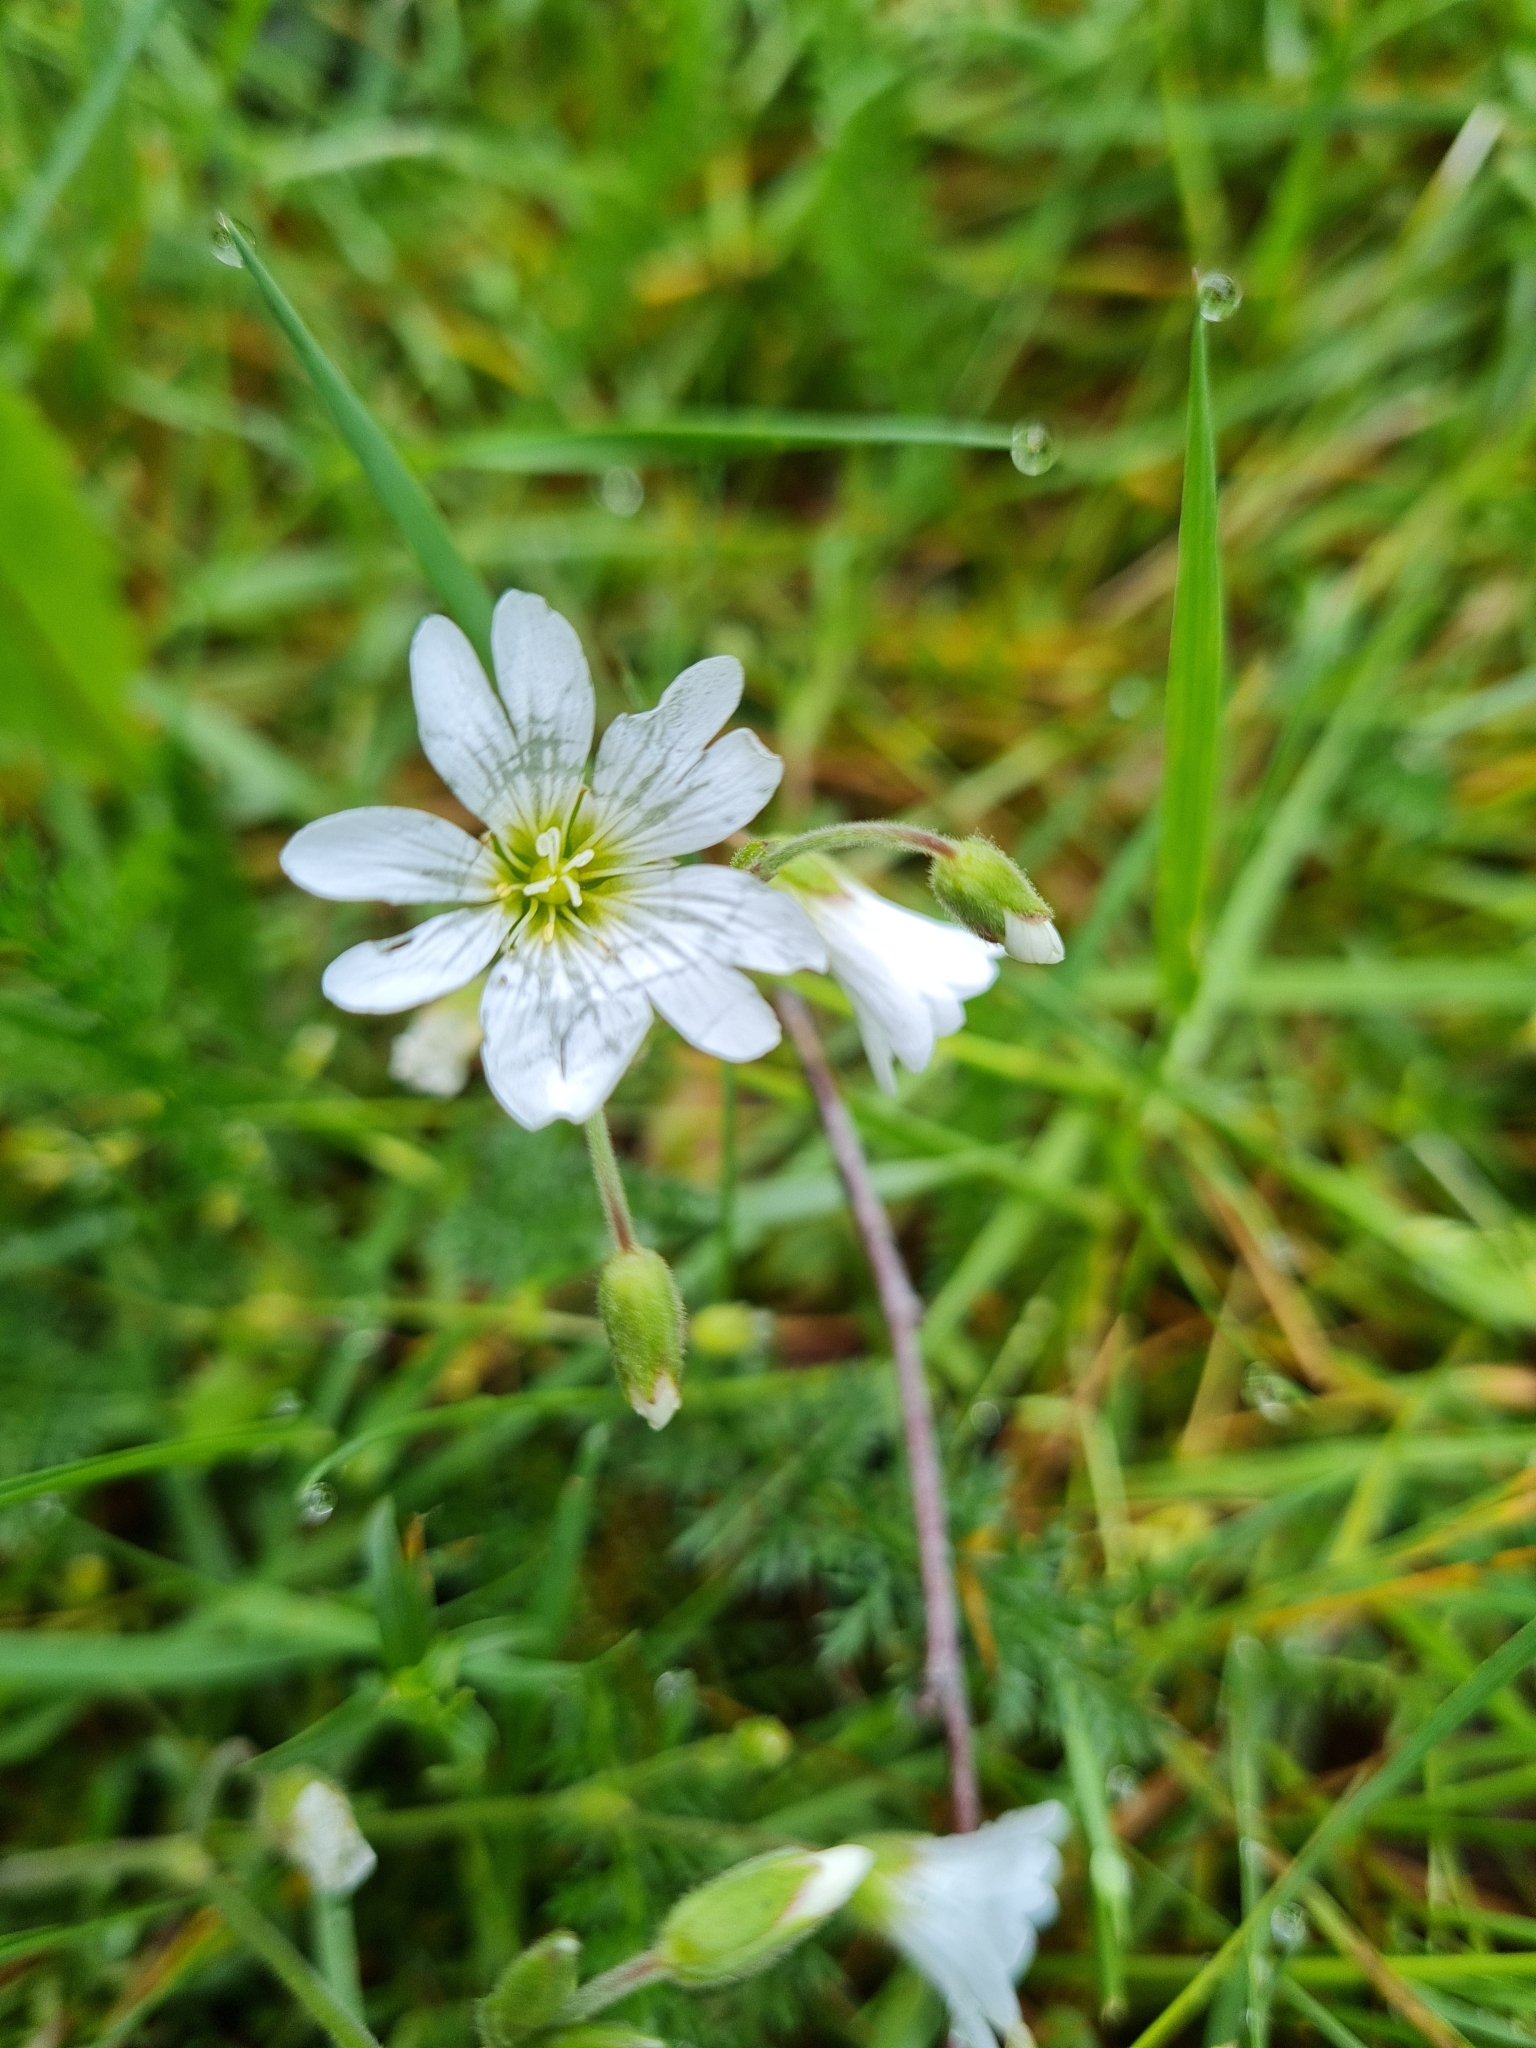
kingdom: Plantae
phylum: Tracheophyta
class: Magnoliopsida
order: Caryophyllales
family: Caryophyllaceae
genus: Cerastium
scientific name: Cerastium arvense
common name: Field mouse-ear
